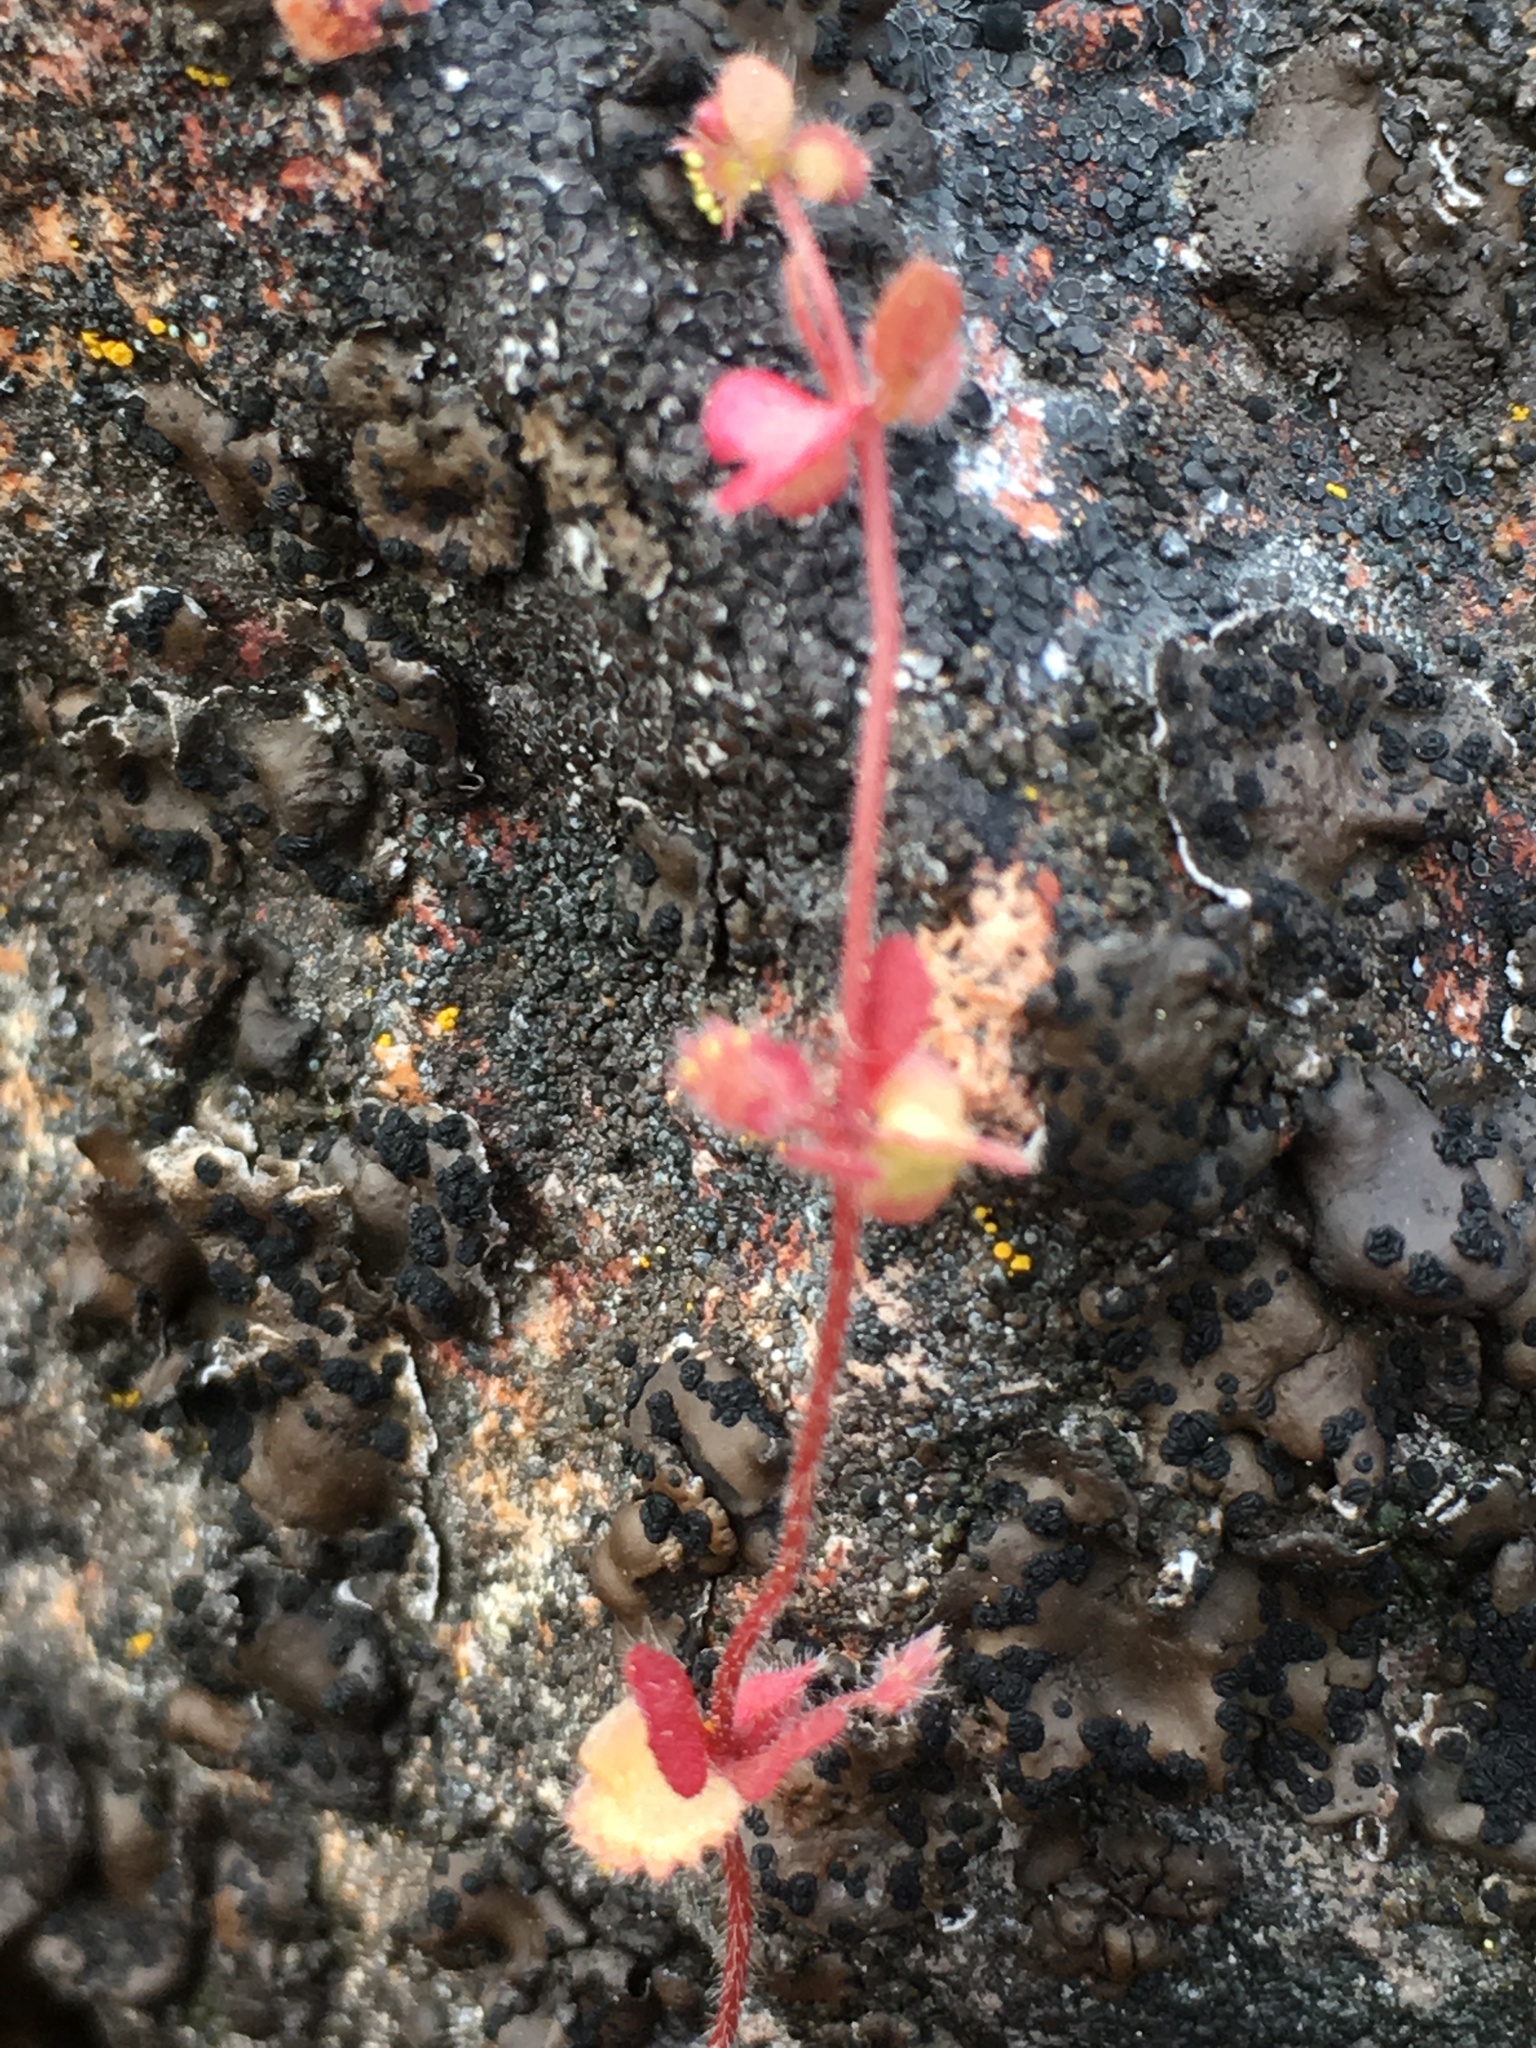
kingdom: Plantae
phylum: Tracheophyta
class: Magnoliopsida
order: Caryophyllales
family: Polygonaceae
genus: Pterostegia
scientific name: Pterostegia drymarioides
